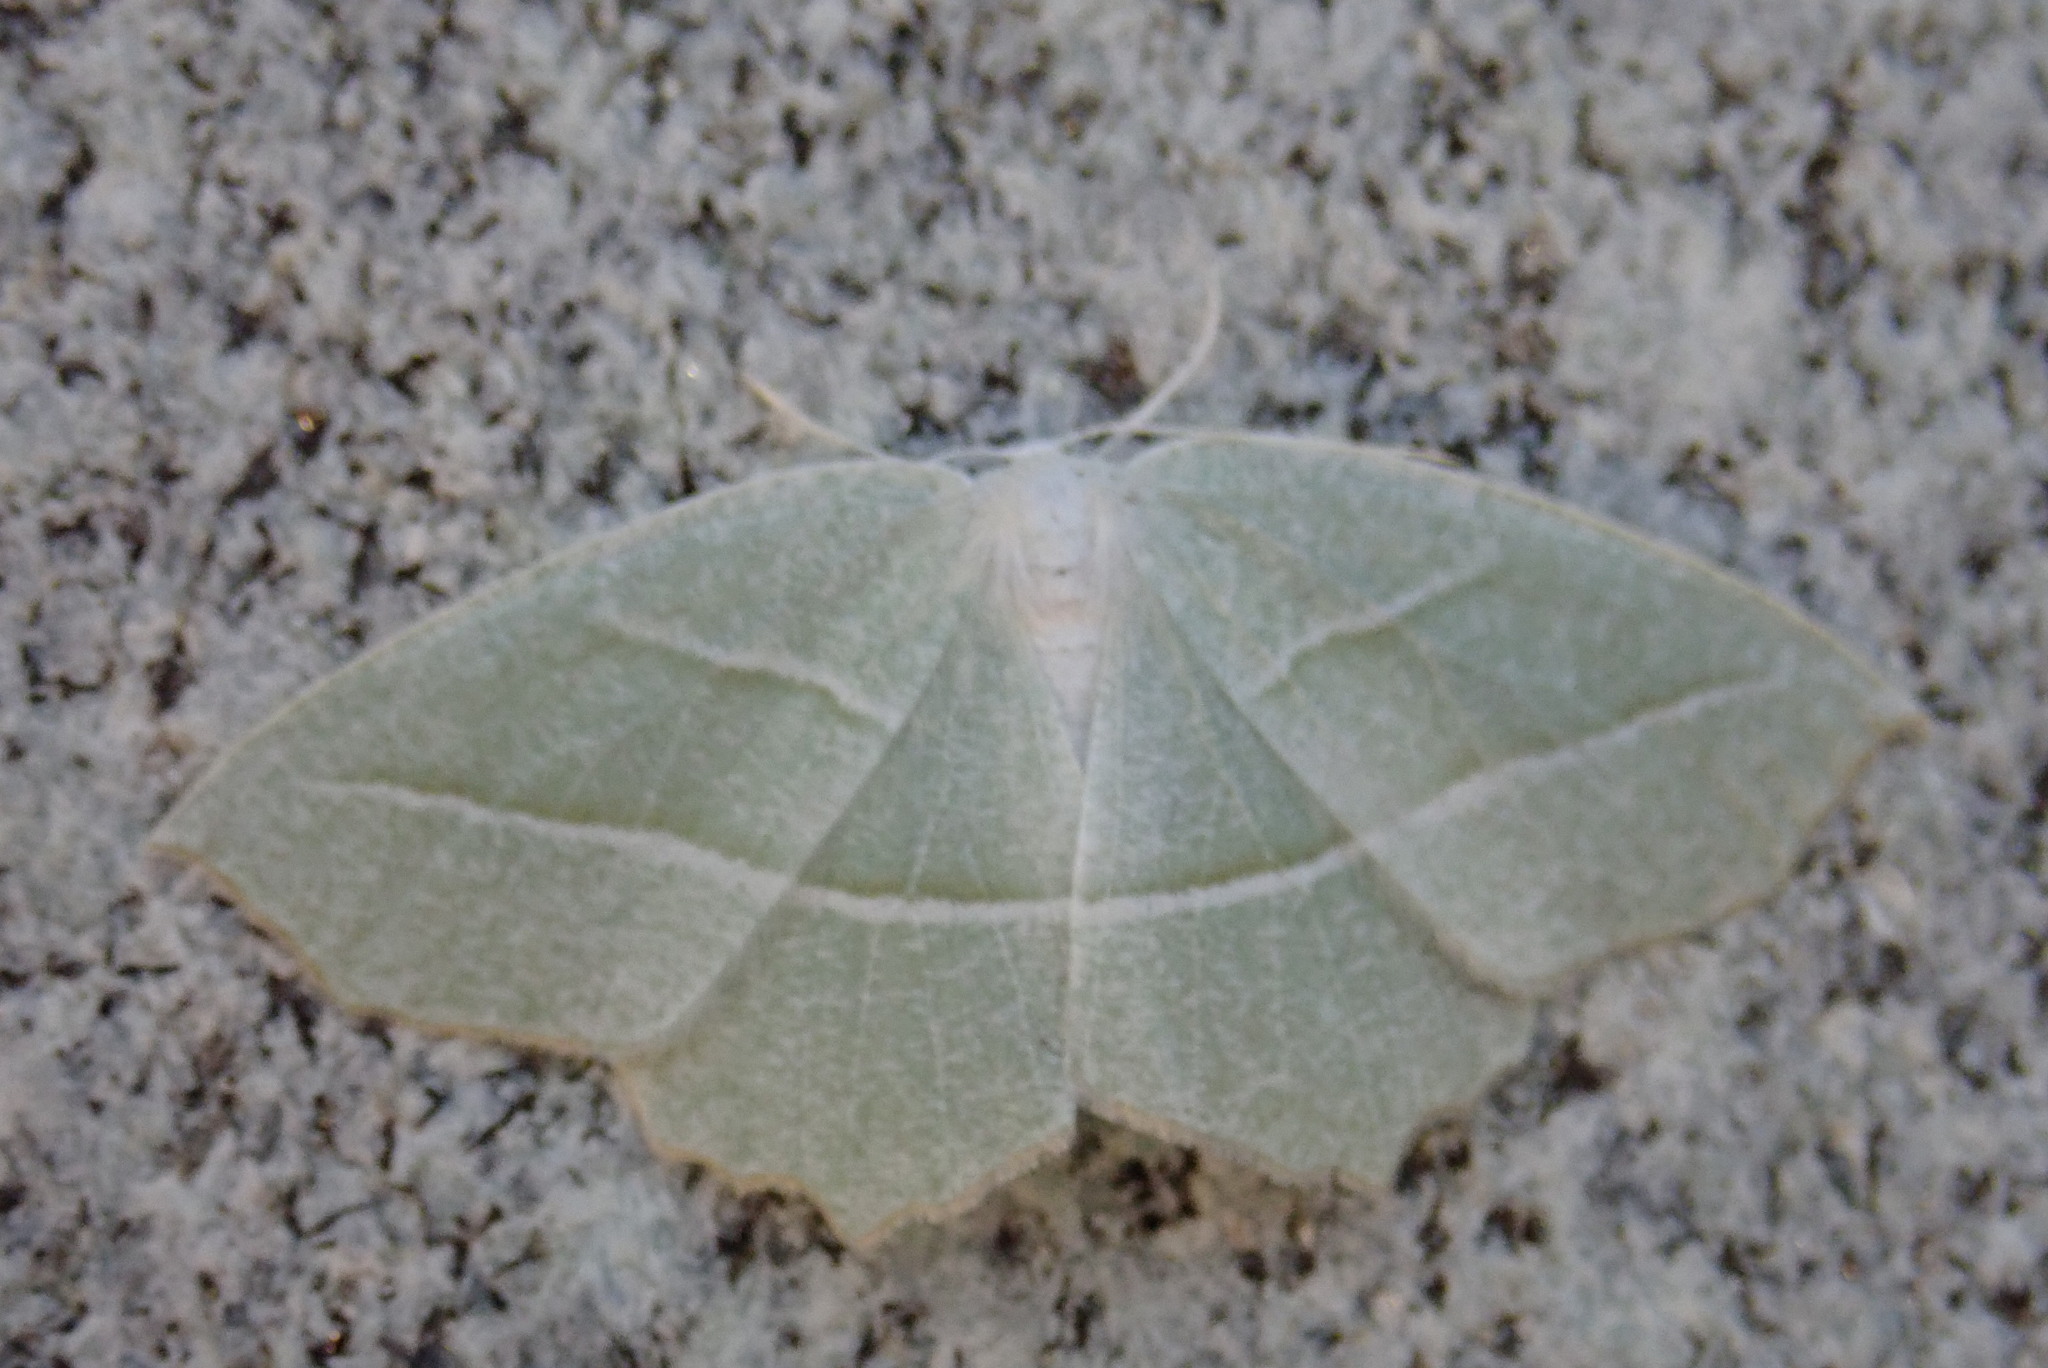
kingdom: Animalia
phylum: Arthropoda
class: Insecta
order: Lepidoptera
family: Geometridae
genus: Campaea
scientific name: Campaea perlata
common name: Fringed looper
